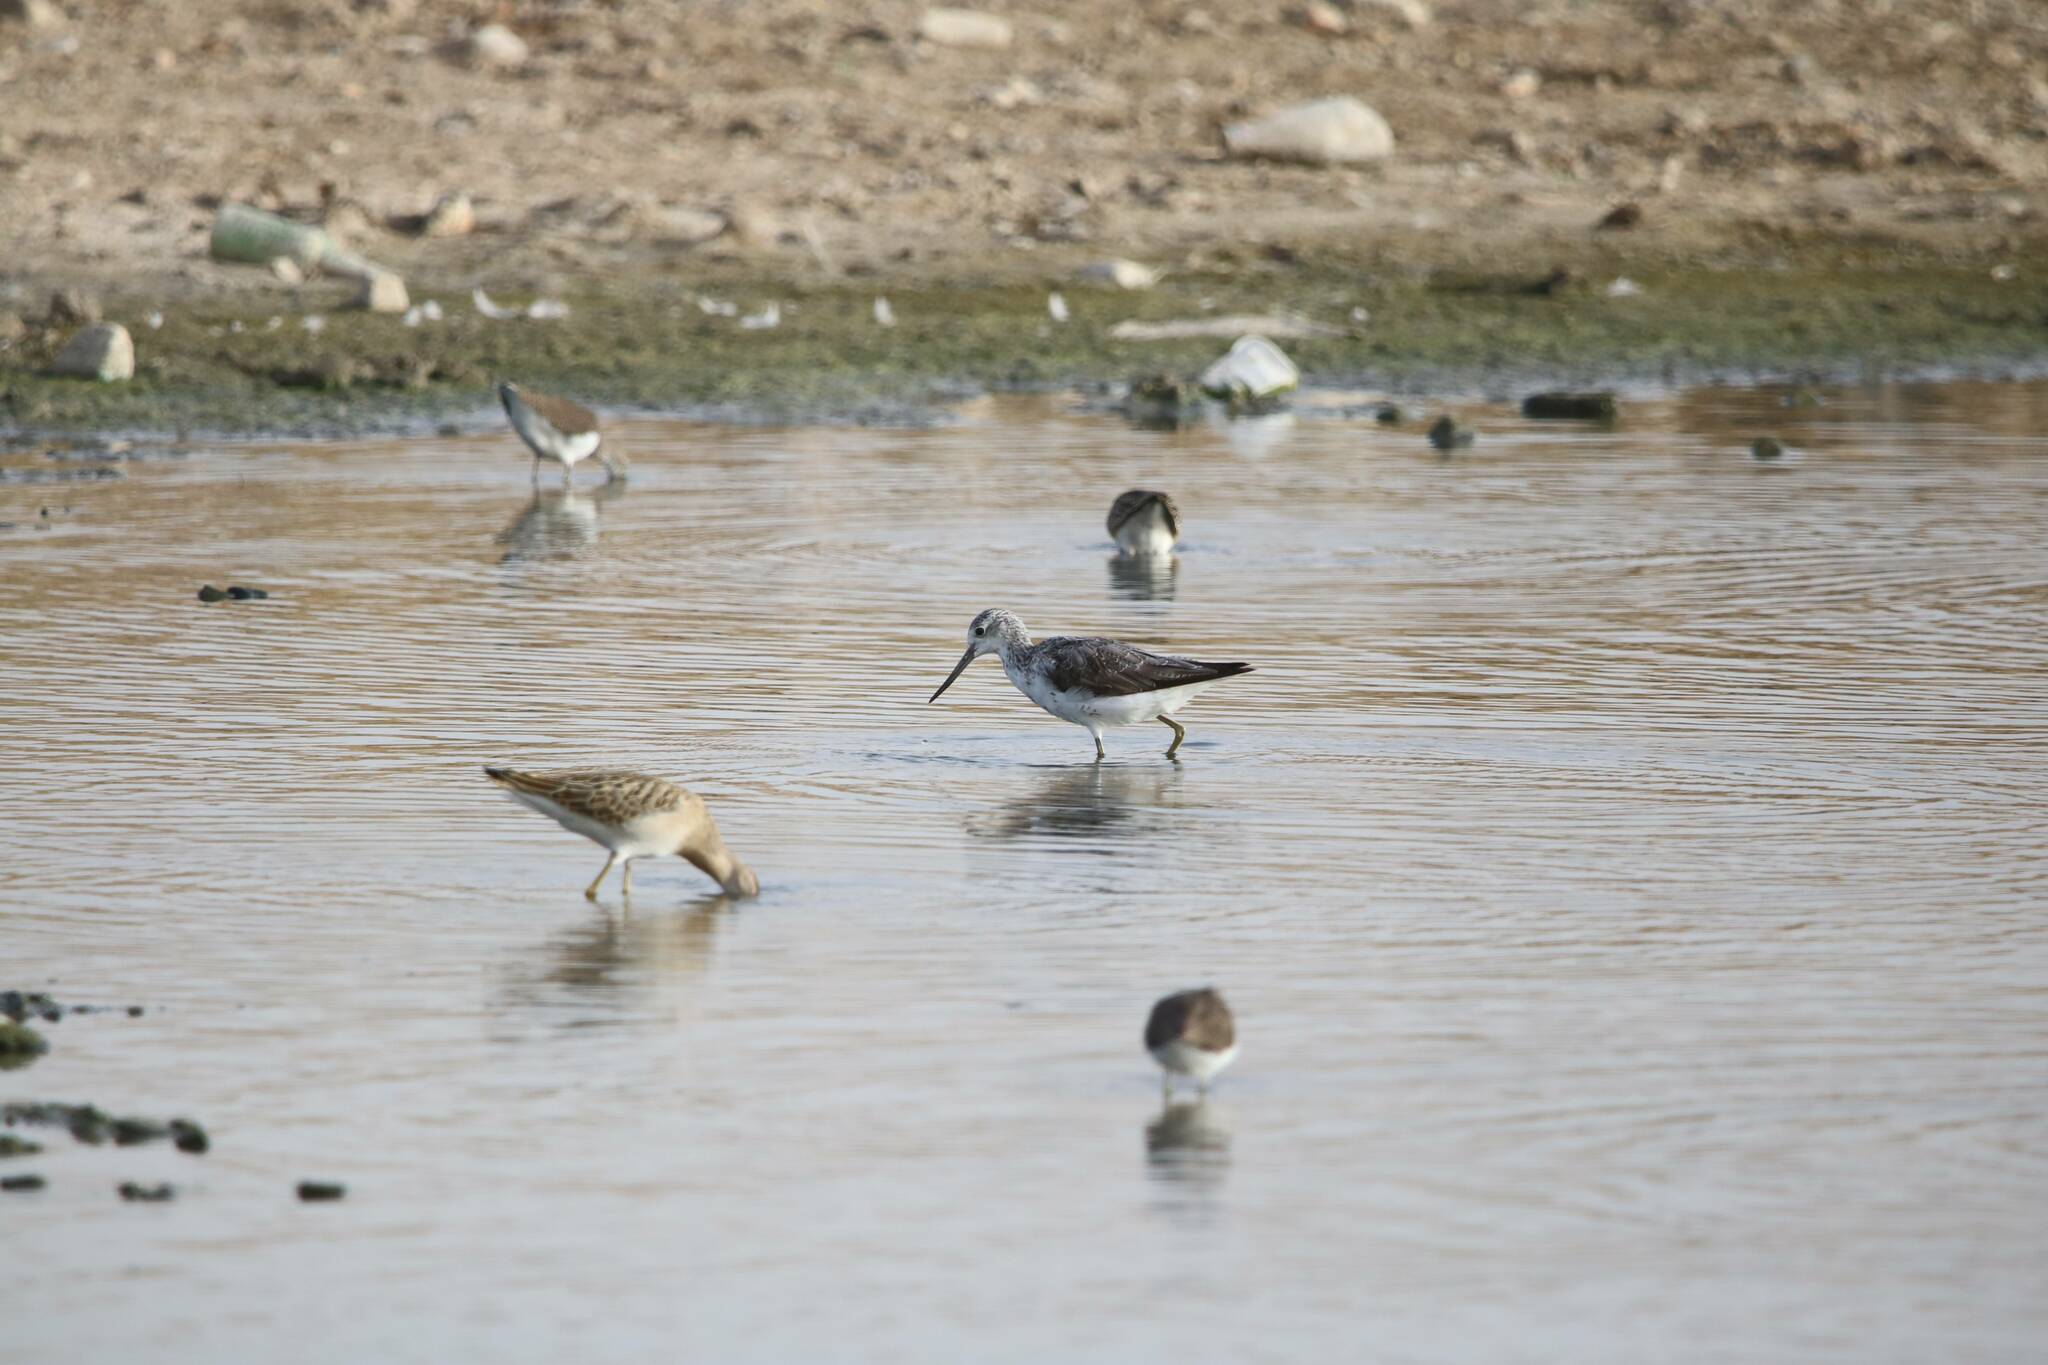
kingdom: Animalia
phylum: Chordata
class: Aves
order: Charadriiformes
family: Scolopacidae
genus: Tringa
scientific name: Tringa nebularia
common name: Common greenshank
